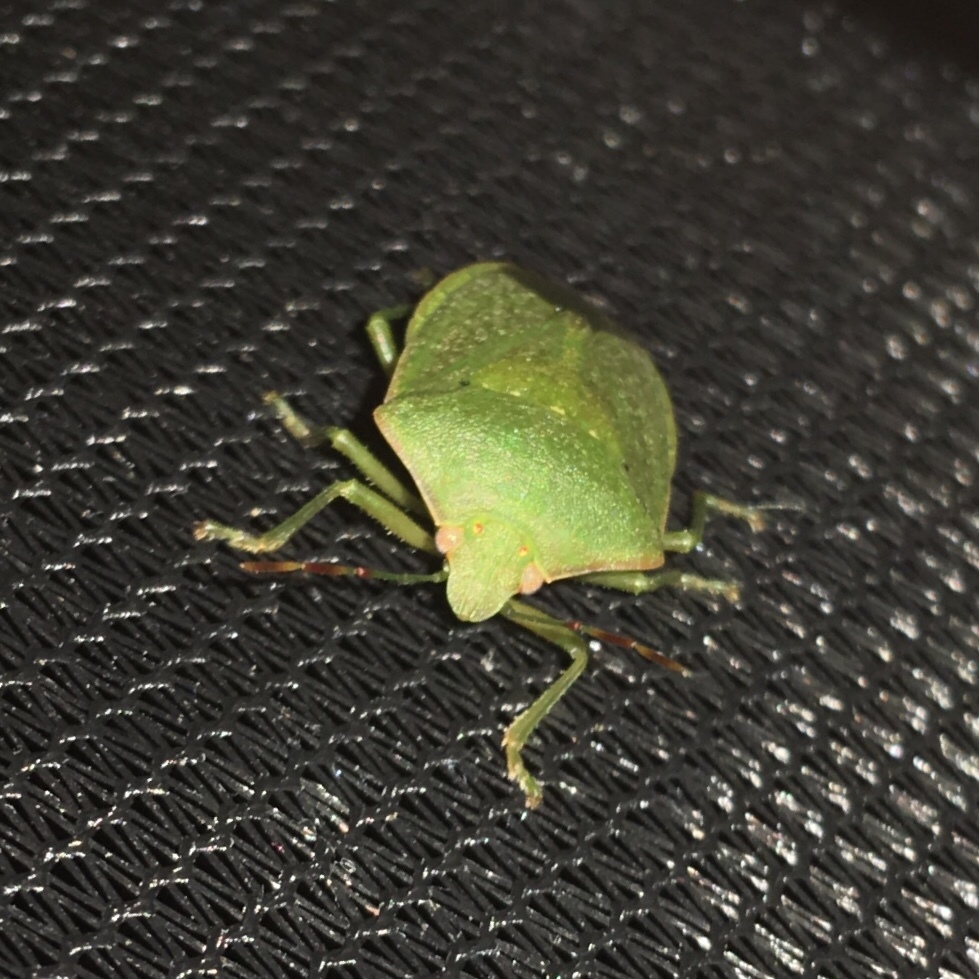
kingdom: Animalia
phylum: Arthropoda
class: Insecta
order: Hemiptera
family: Pentatomidae
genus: Nezara
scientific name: Nezara viridula
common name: Southern green stink bug
